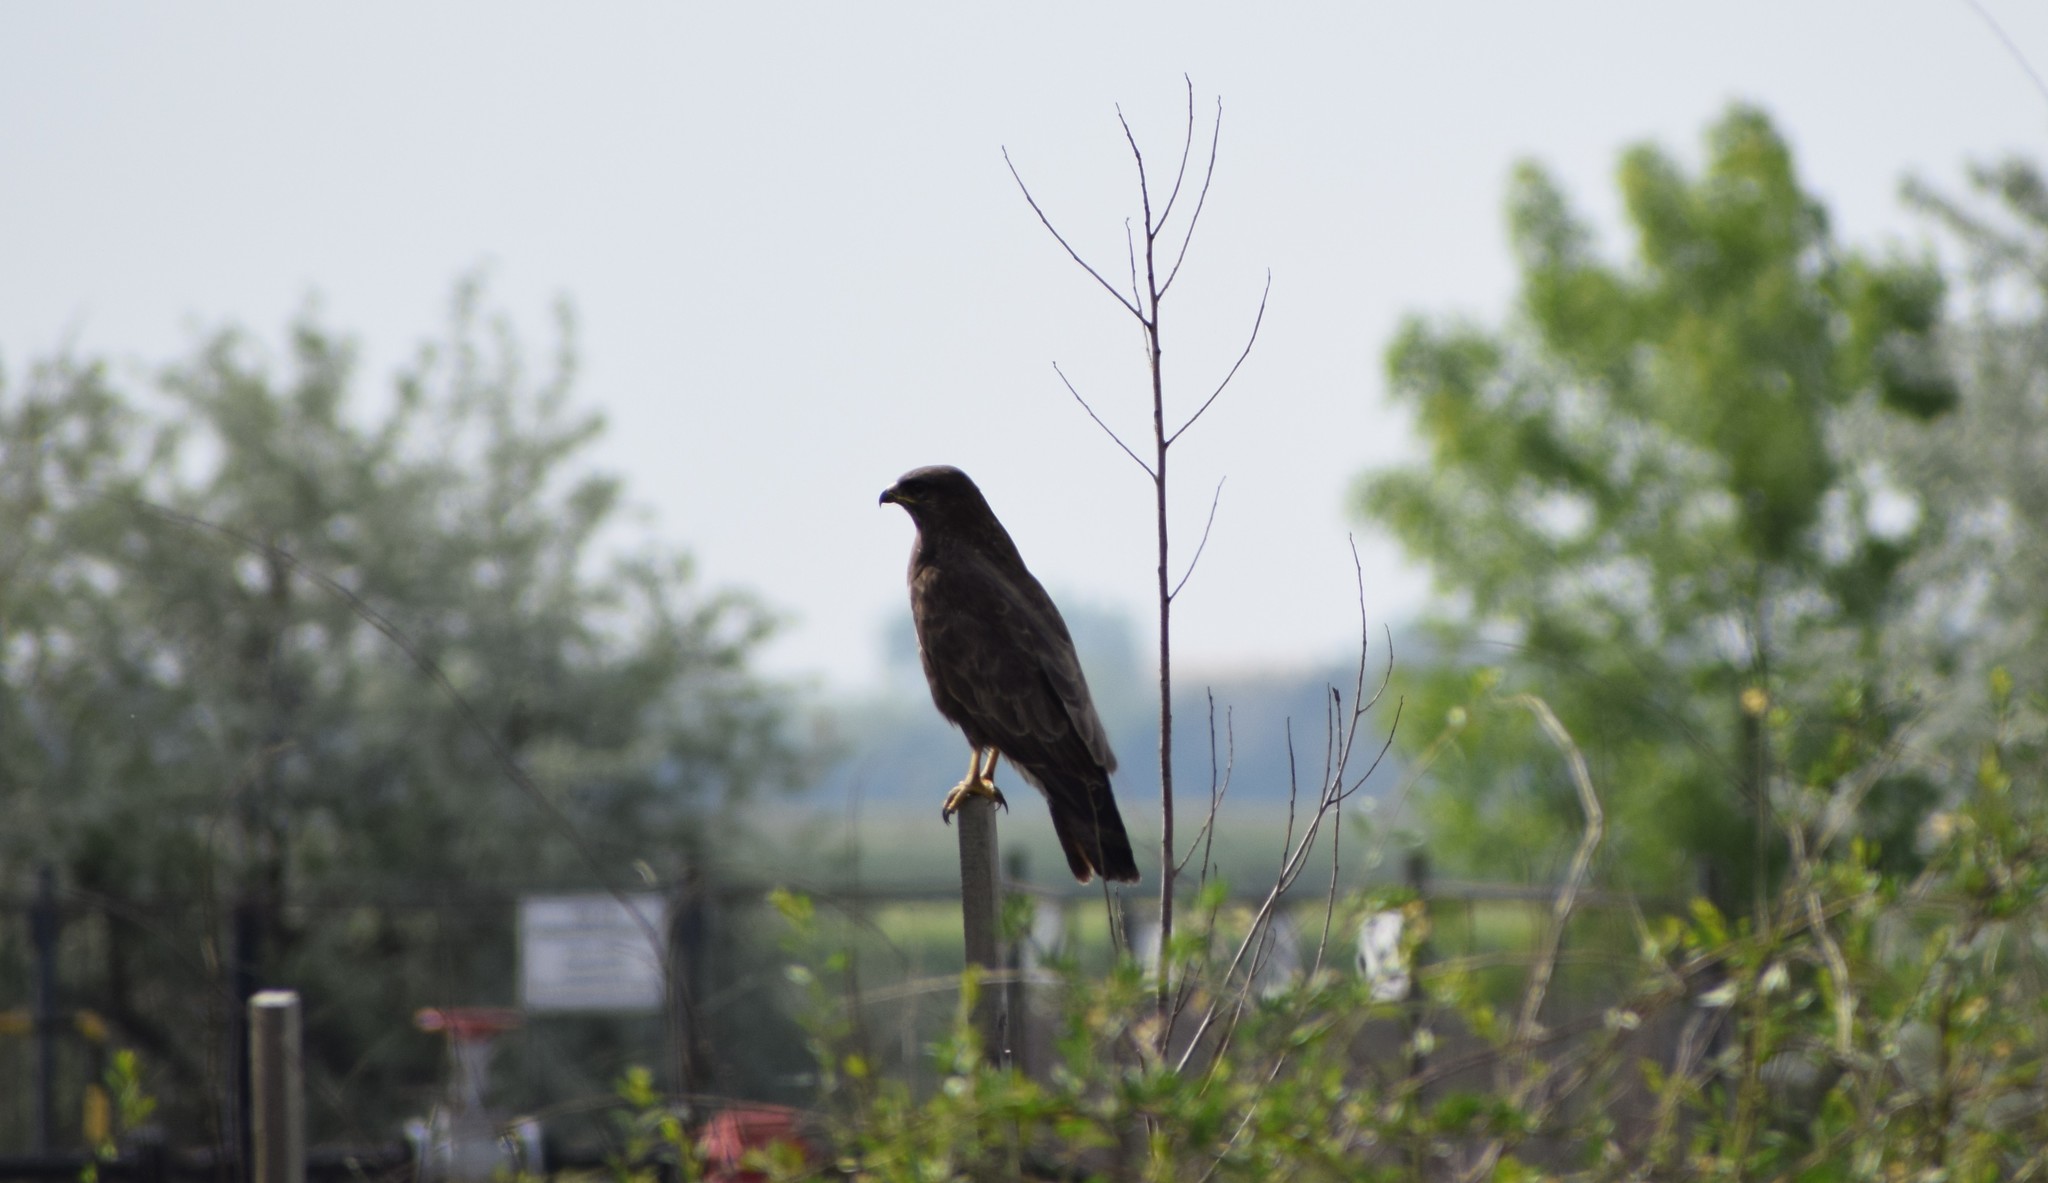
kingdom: Animalia
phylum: Chordata
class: Aves
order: Accipitriformes
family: Accipitridae
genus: Buteo
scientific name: Buteo buteo
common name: Common buzzard
